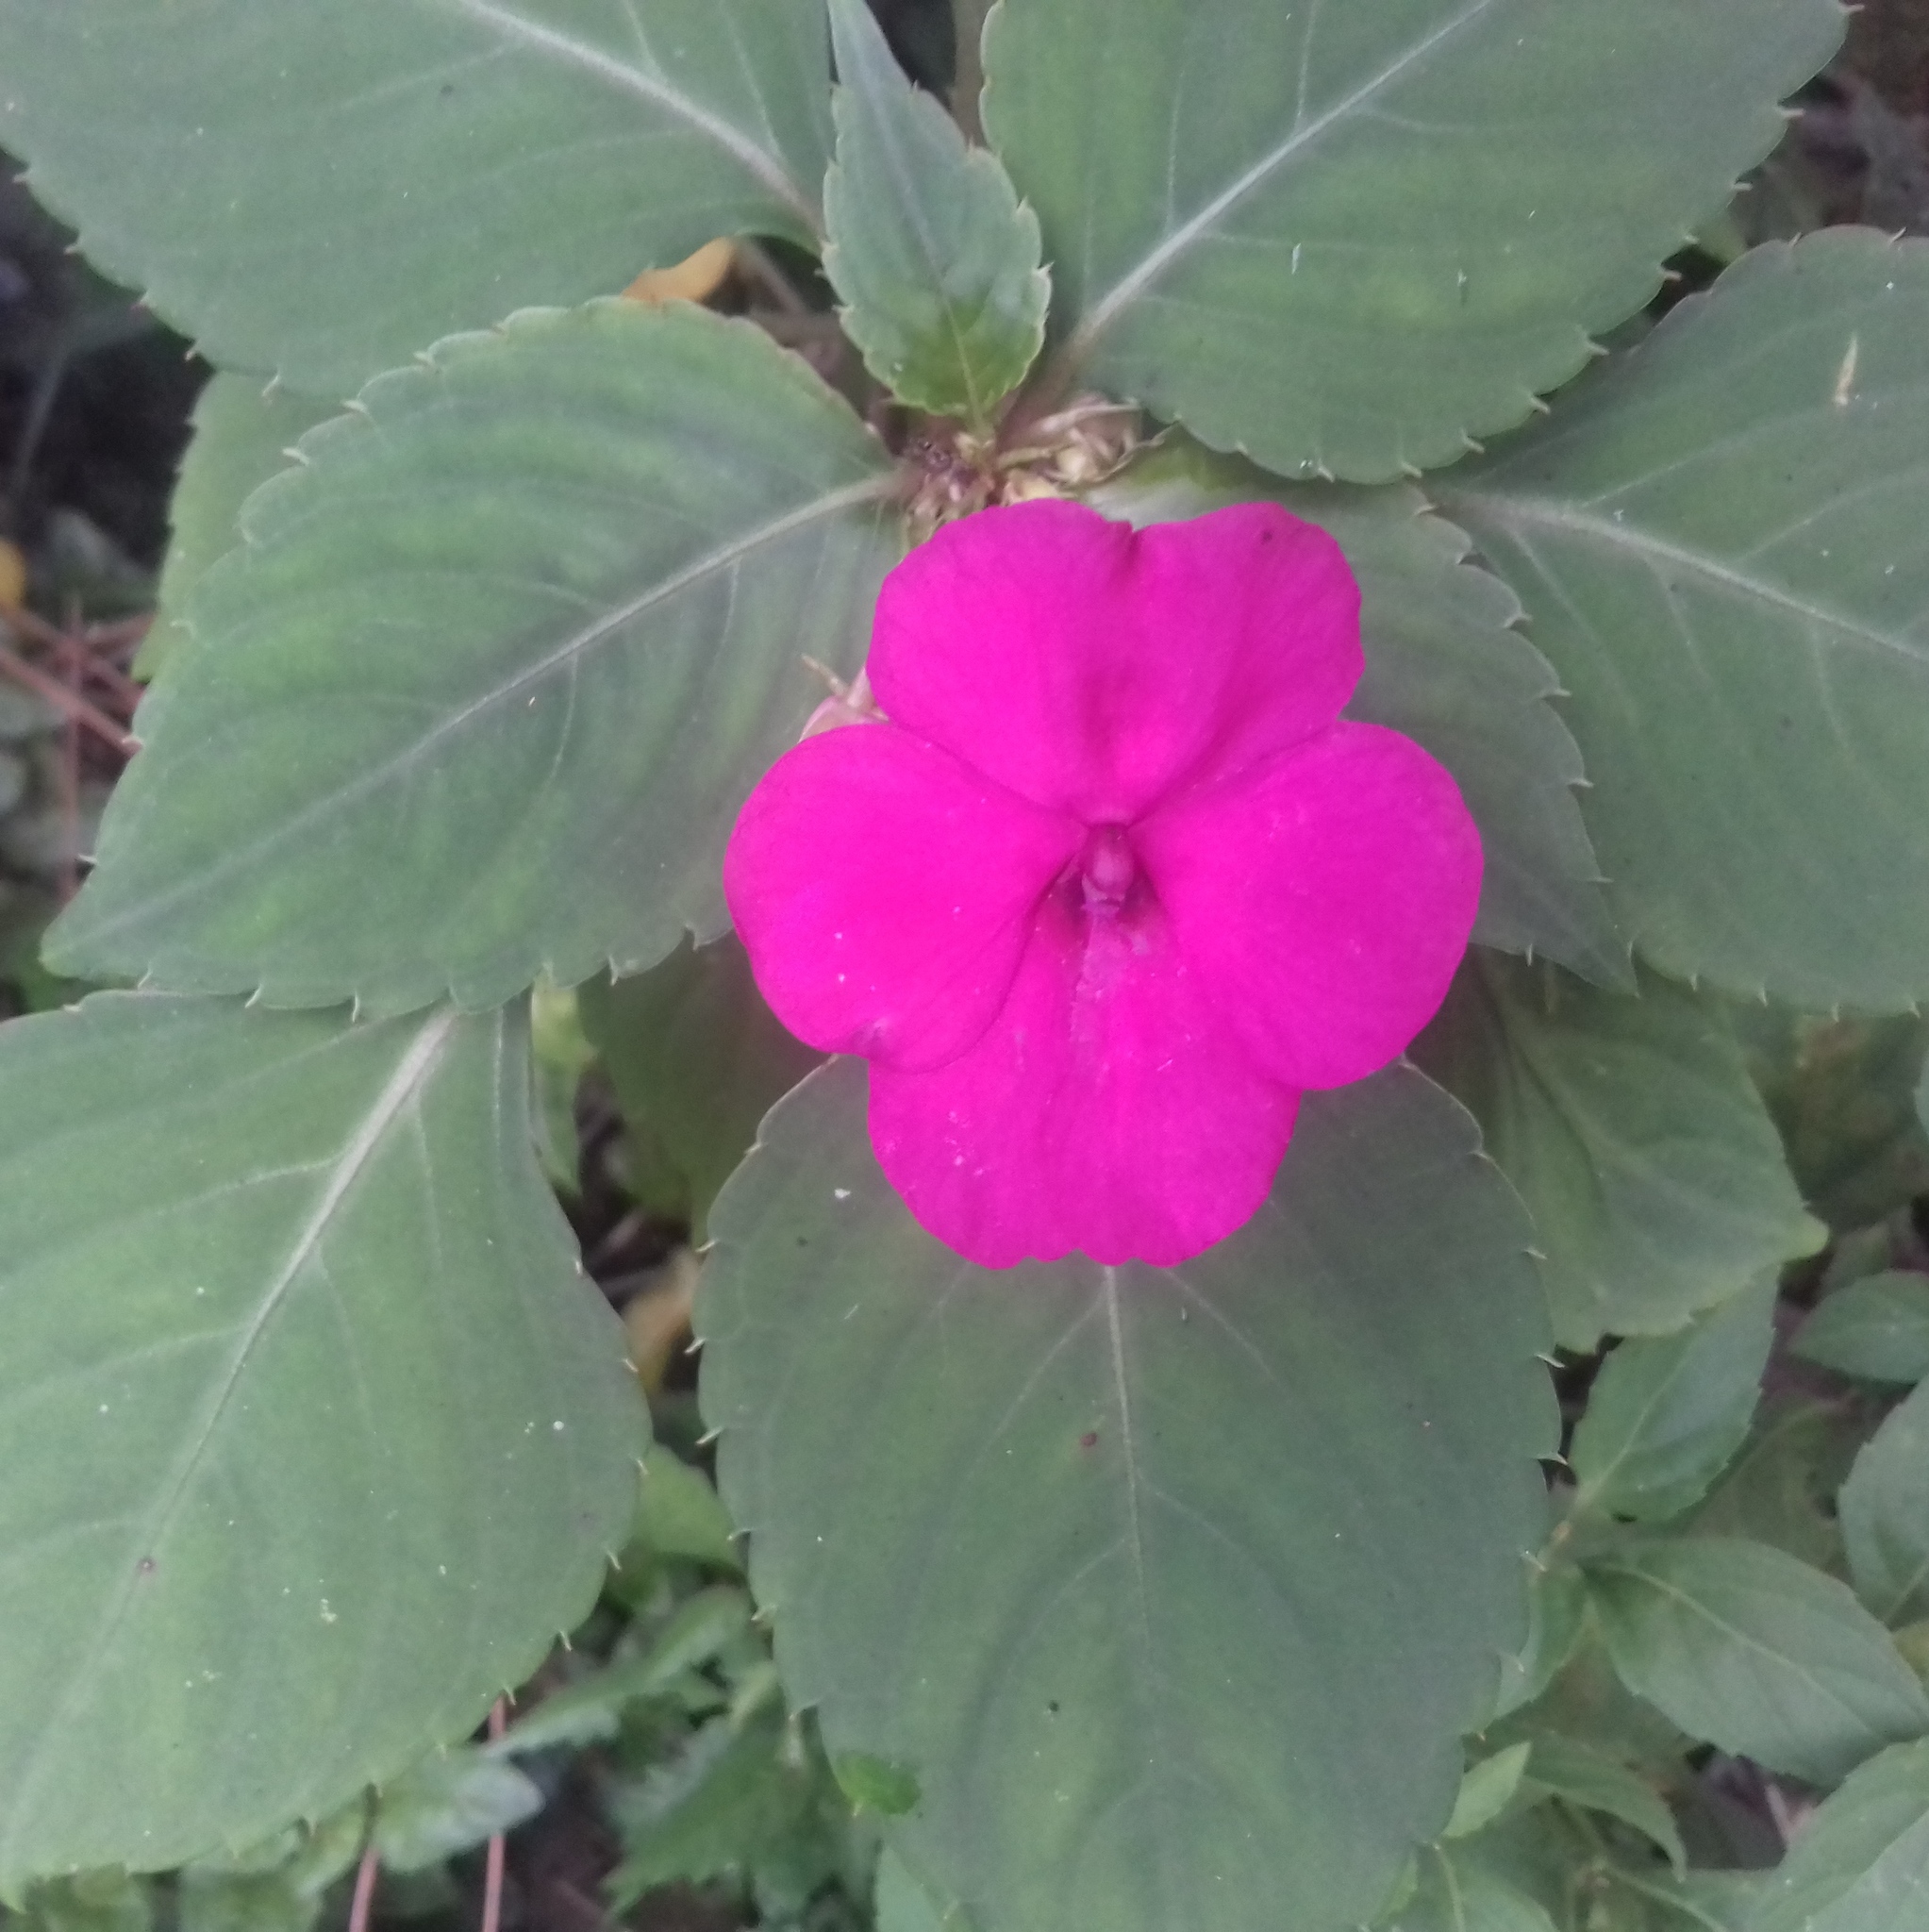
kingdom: Plantae
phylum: Tracheophyta
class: Magnoliopsida
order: Ericales
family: Balsaminaceae
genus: Impatiens
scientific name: Impatiens walleriana
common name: Buzzy lizzy
